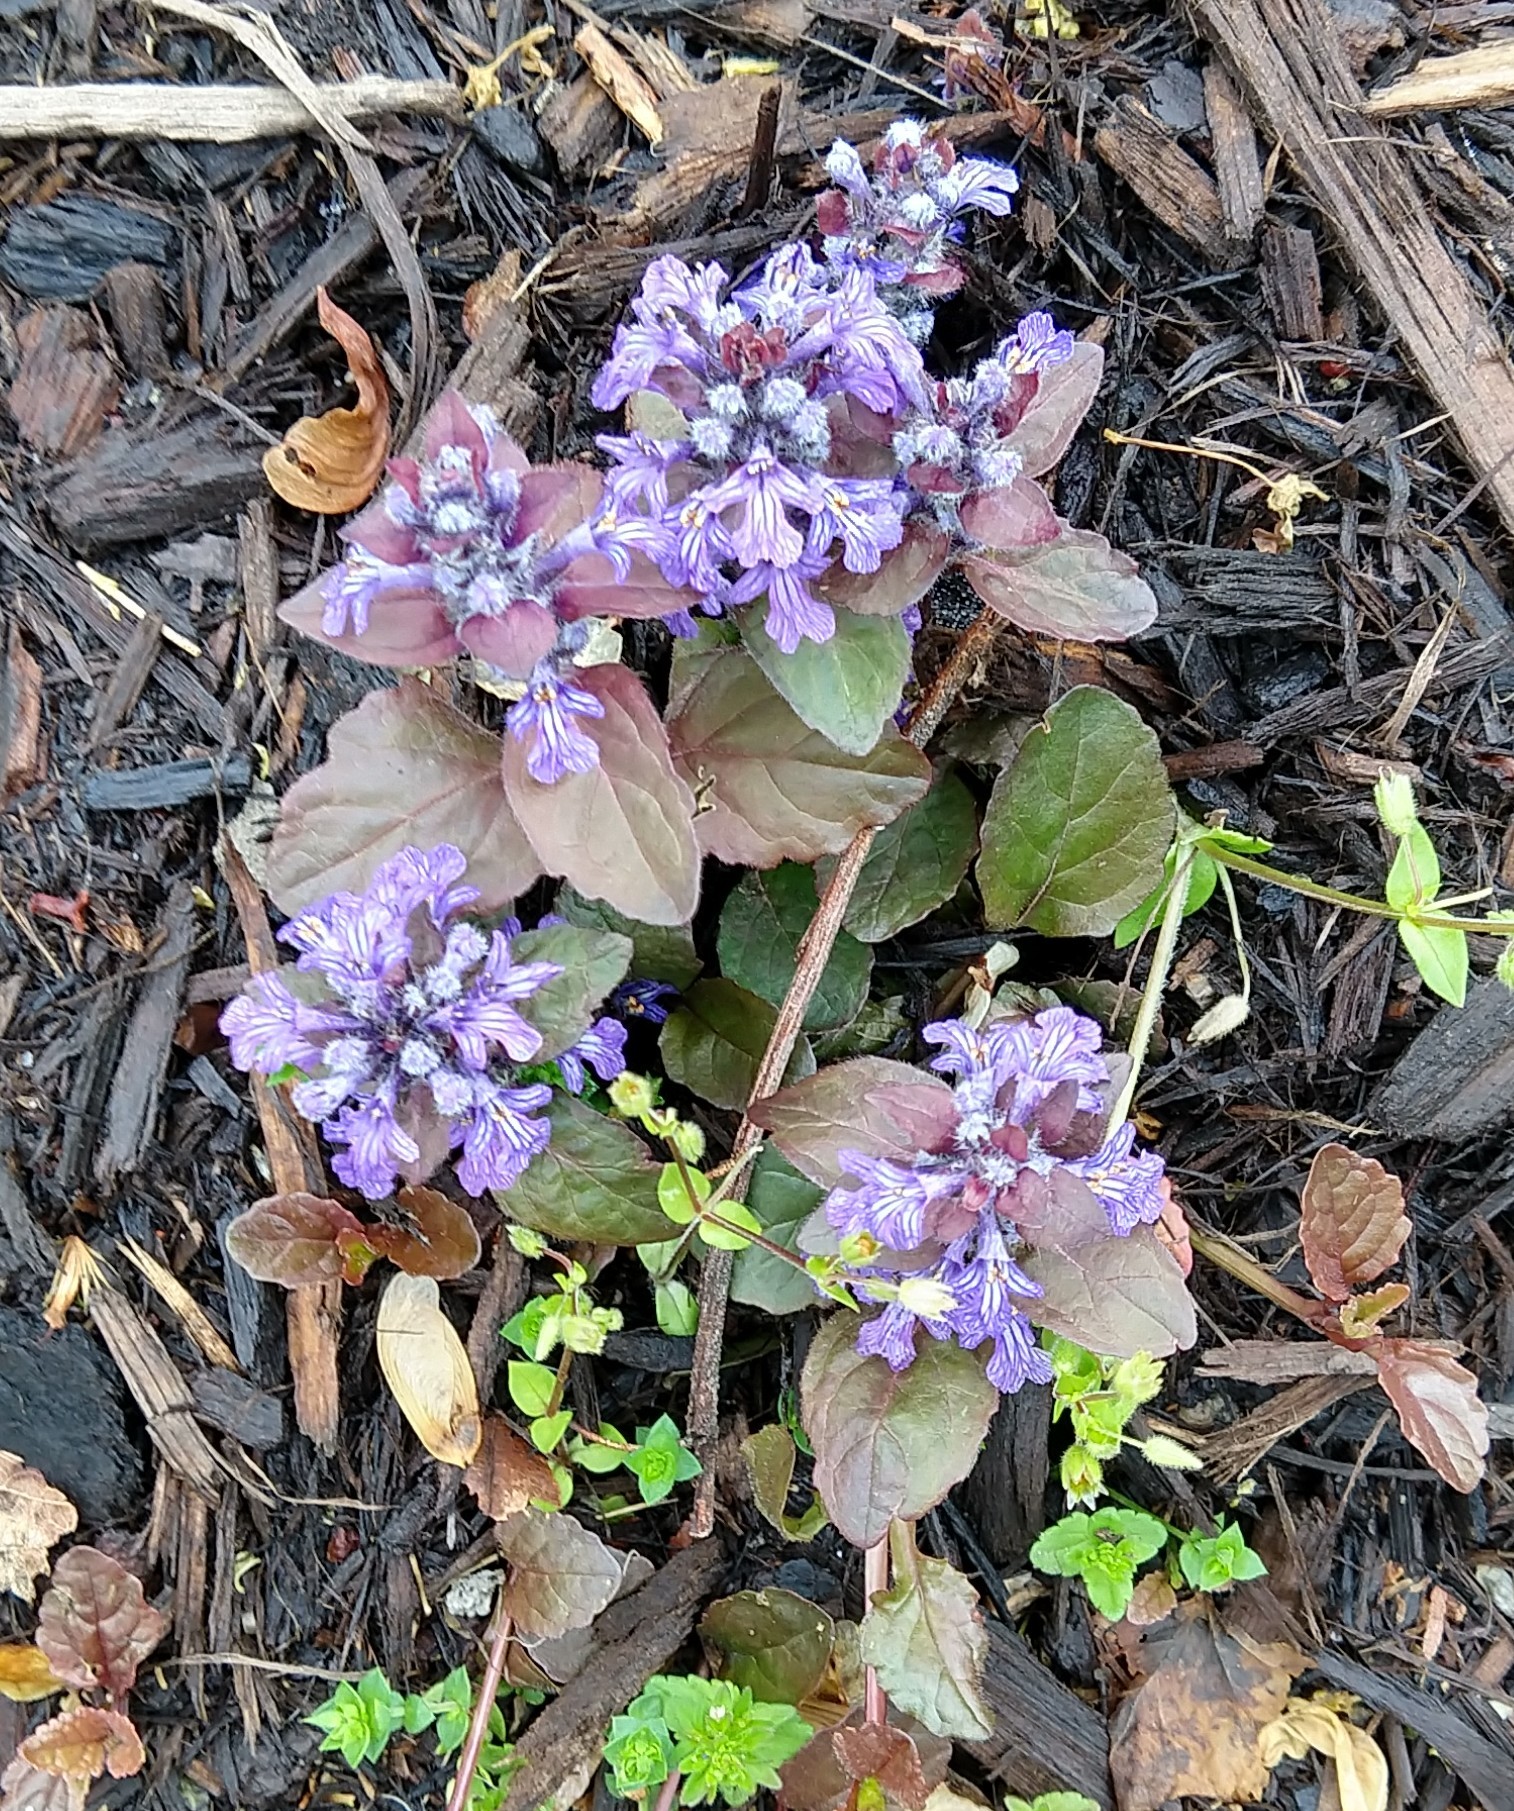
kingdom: Plantae
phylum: Tracheophyta
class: Magnoliopsida
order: Lamiales
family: Lamiaceae
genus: Ajuga
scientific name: Ajuga reptans
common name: Bugle
